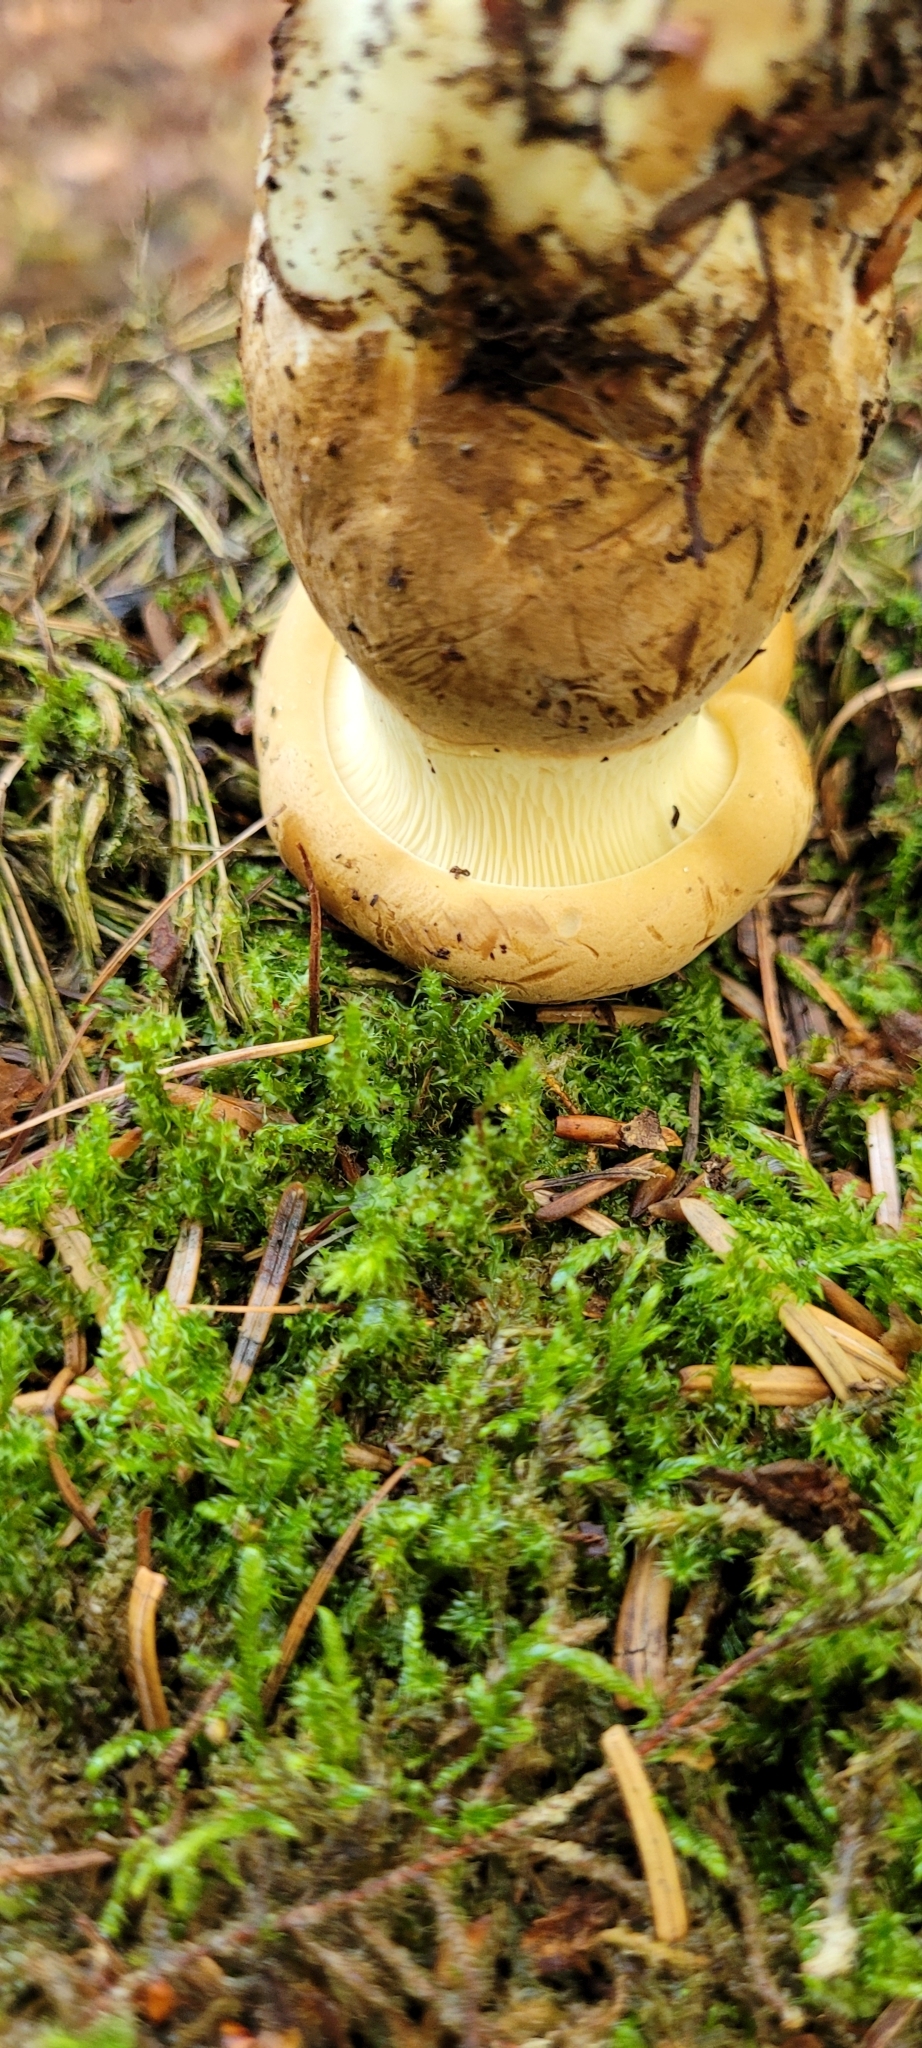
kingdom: Fungi
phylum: Basidiomycota
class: Agaricomycetes
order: Boletales
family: Tapinellaceae
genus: Tapinella
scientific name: Tapinella atrotomentosa
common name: Velvet rollrim
